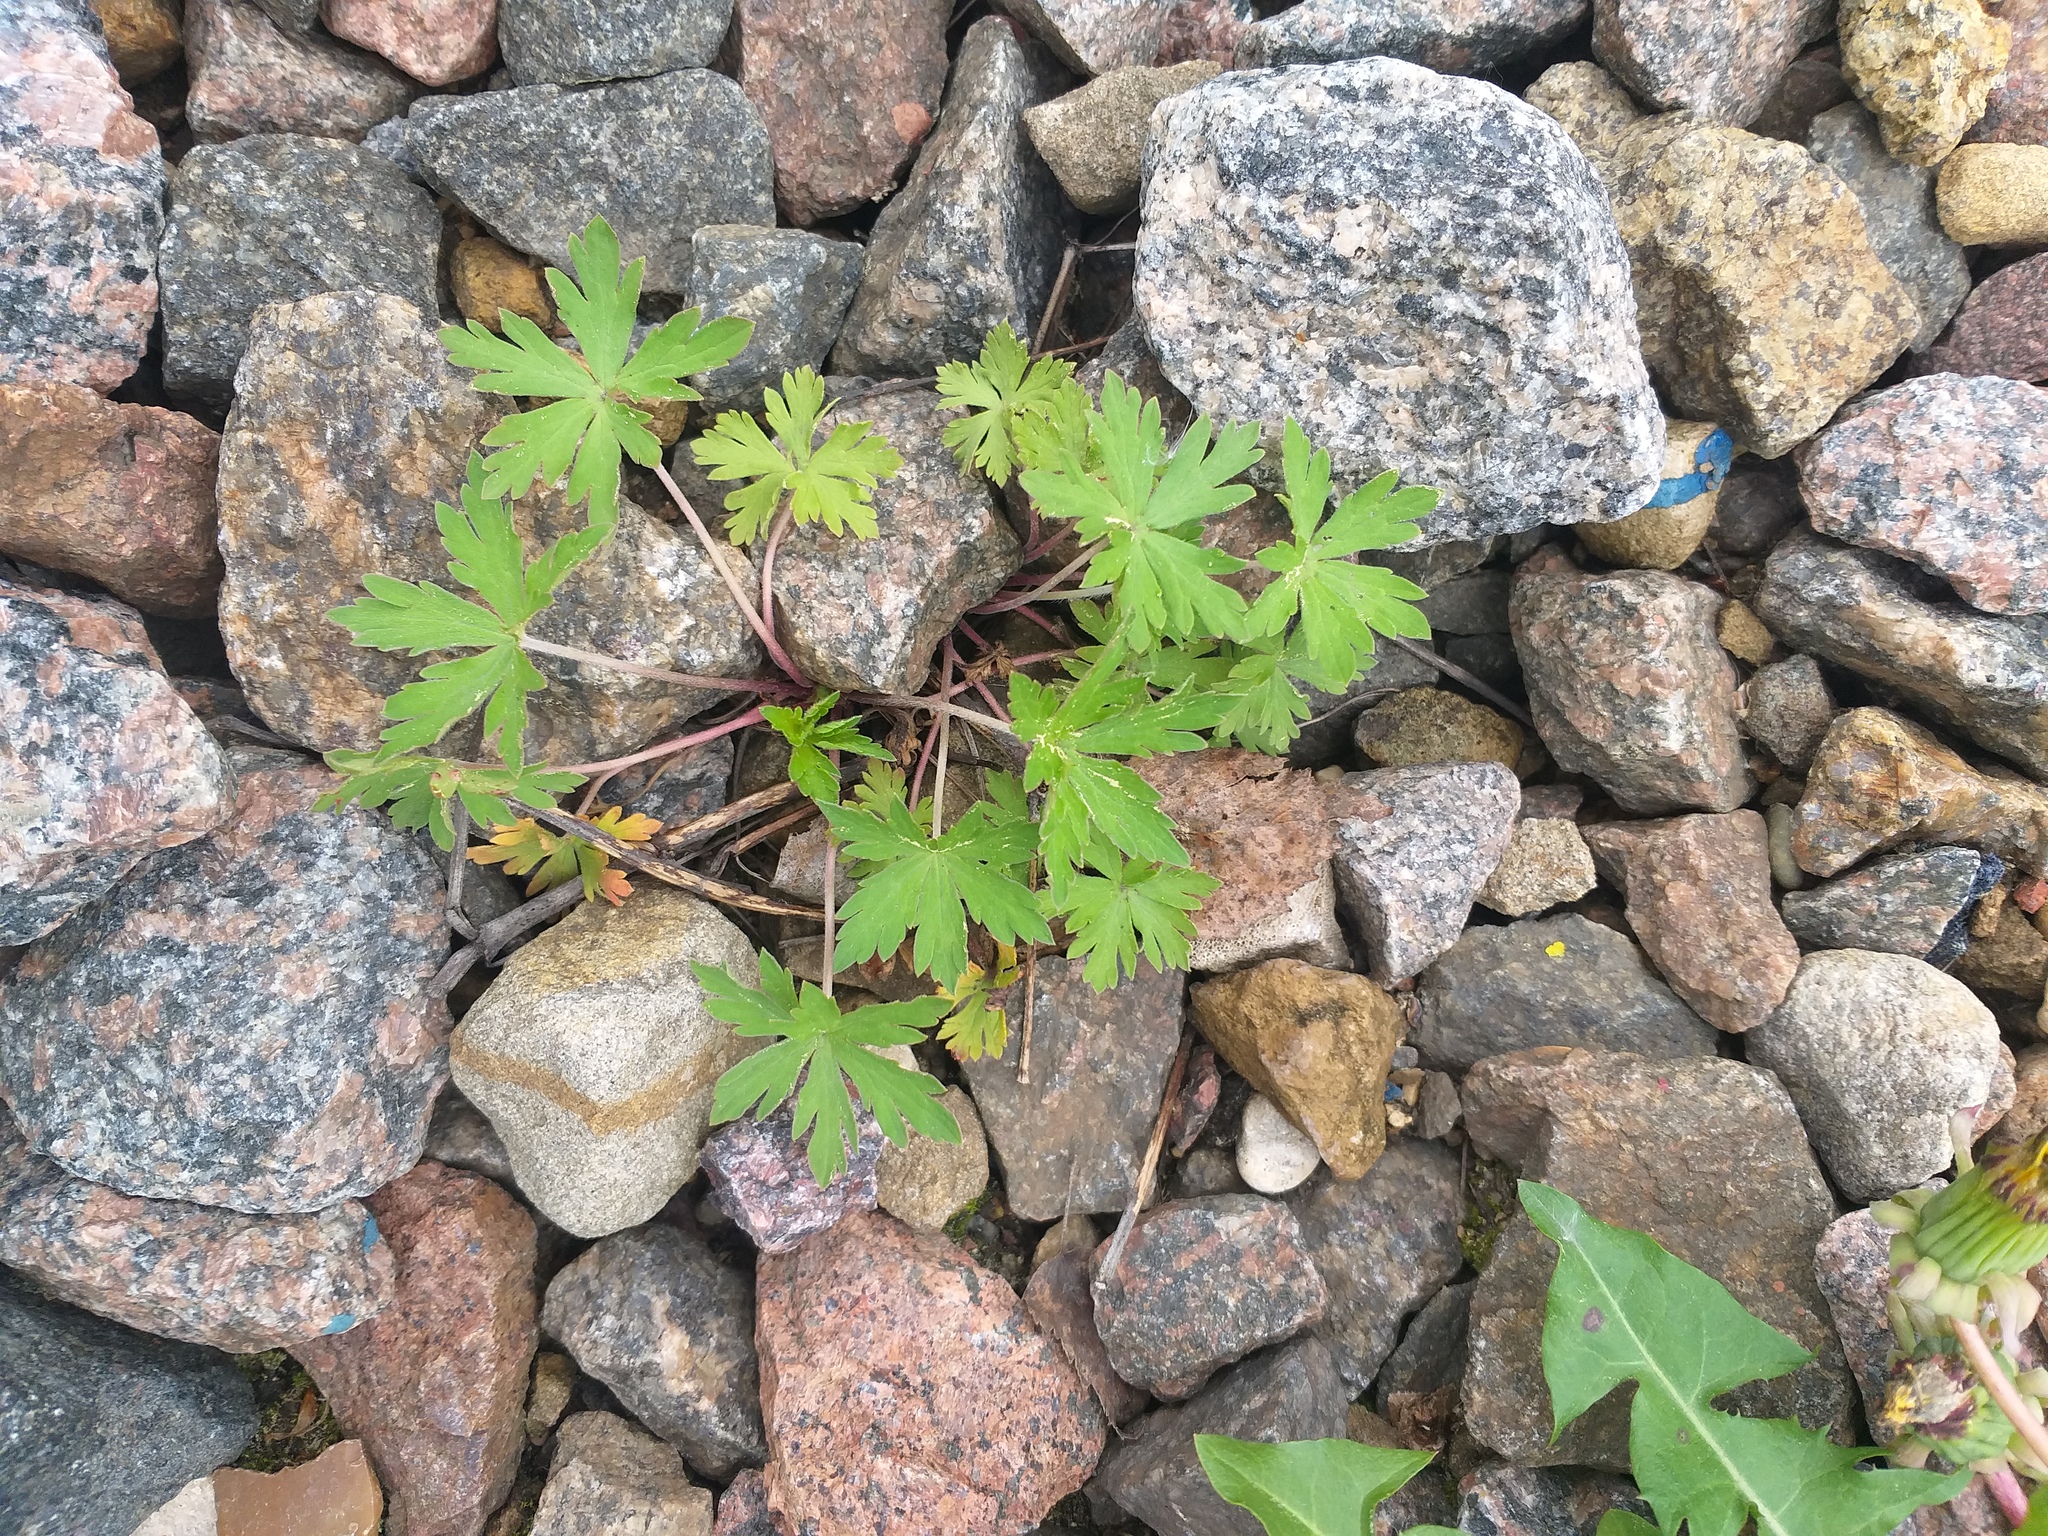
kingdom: Plantae
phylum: Tracheophyta
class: Magnoliopsida
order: Geraniales
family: Geraniaceae
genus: Geranium
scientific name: Geranium sibiricum
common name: Siberian crane's-bill
